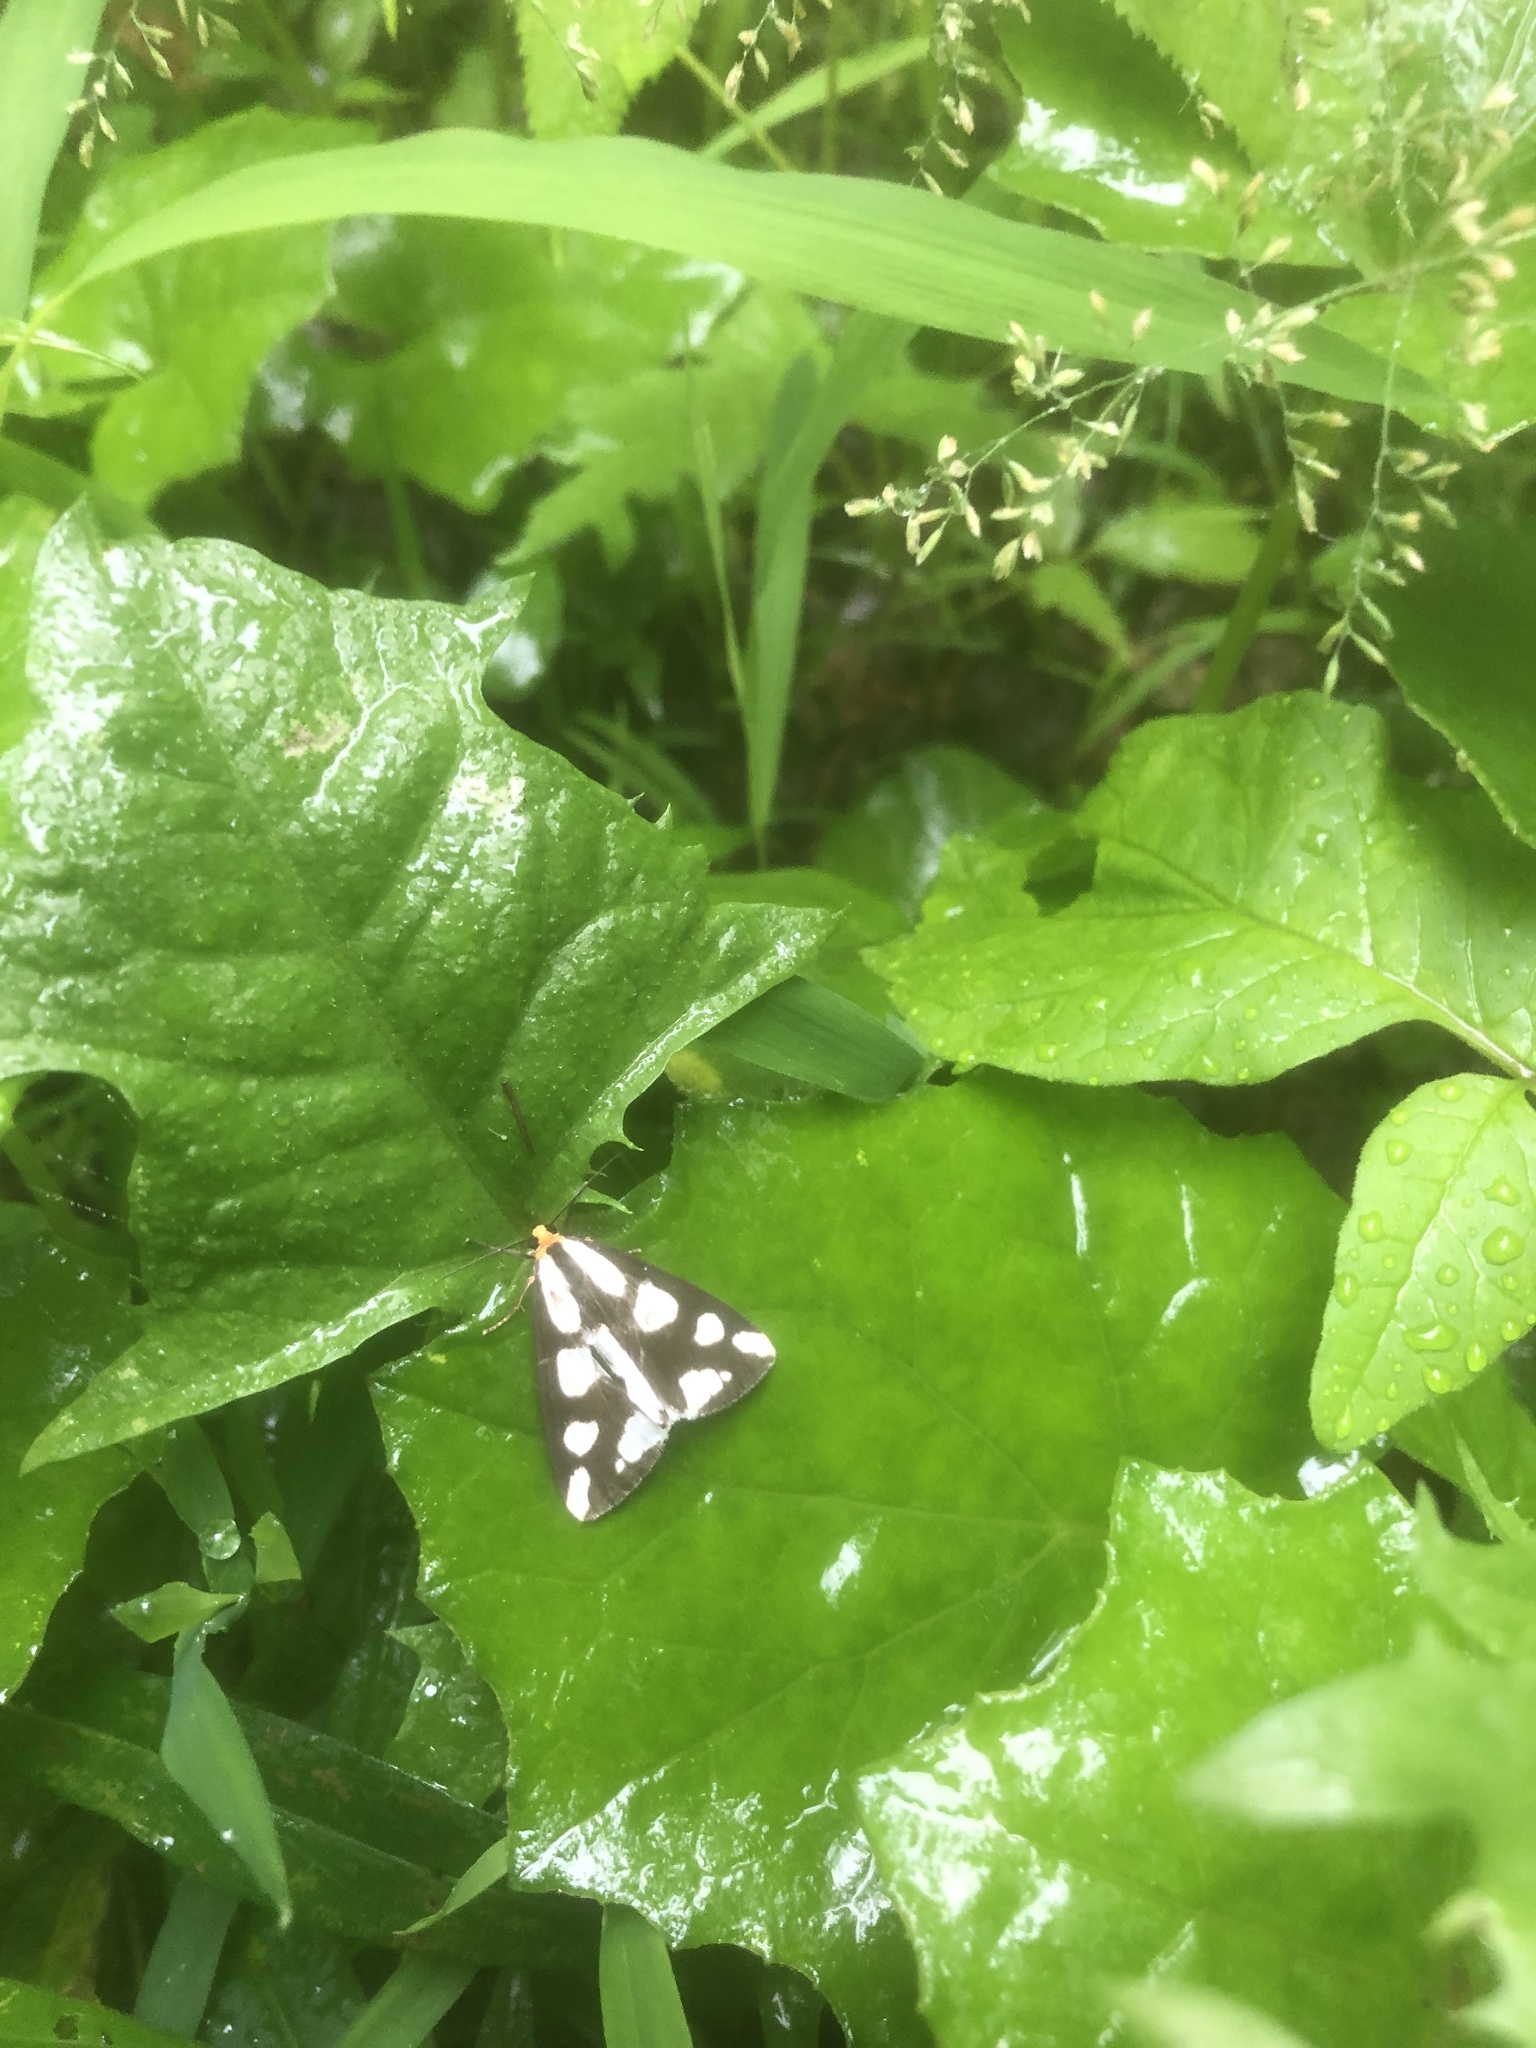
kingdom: Animalia
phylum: Arthropoda
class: Insecta
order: Lepidoptera
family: Erebidae
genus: Haploa
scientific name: Haploa lecontei
